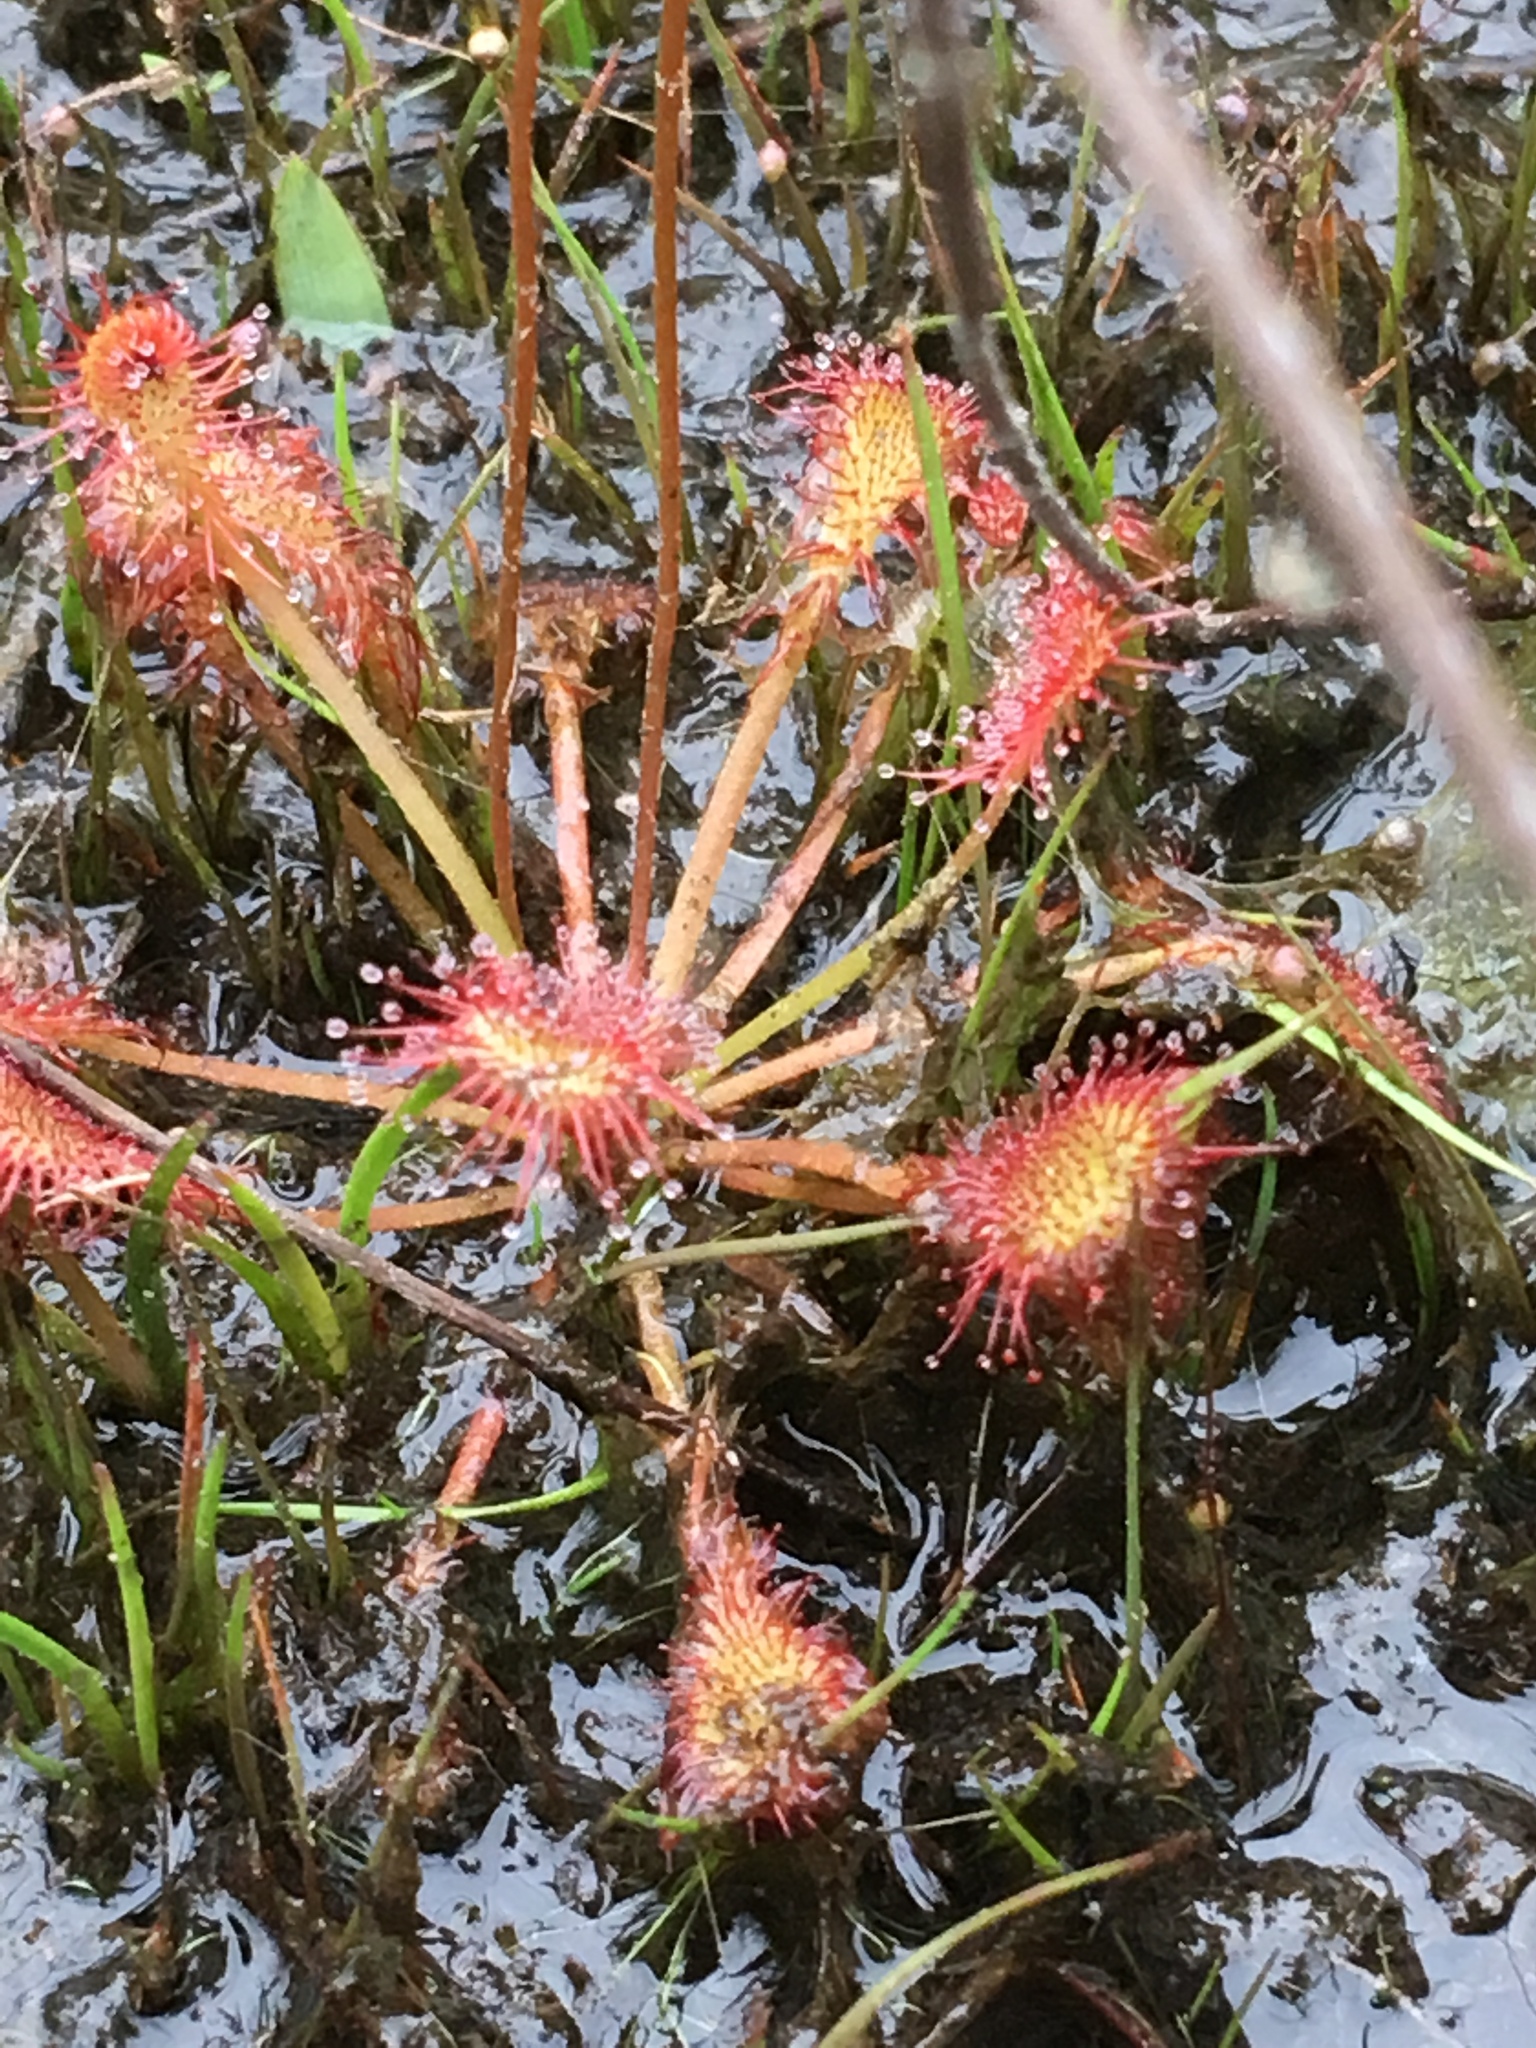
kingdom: Plantae
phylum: Tracheophyta
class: Magnoliopsida
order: Caryophyllales
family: Droseraceae
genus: Drosera
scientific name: Drosera capillaris
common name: Pink sundew
